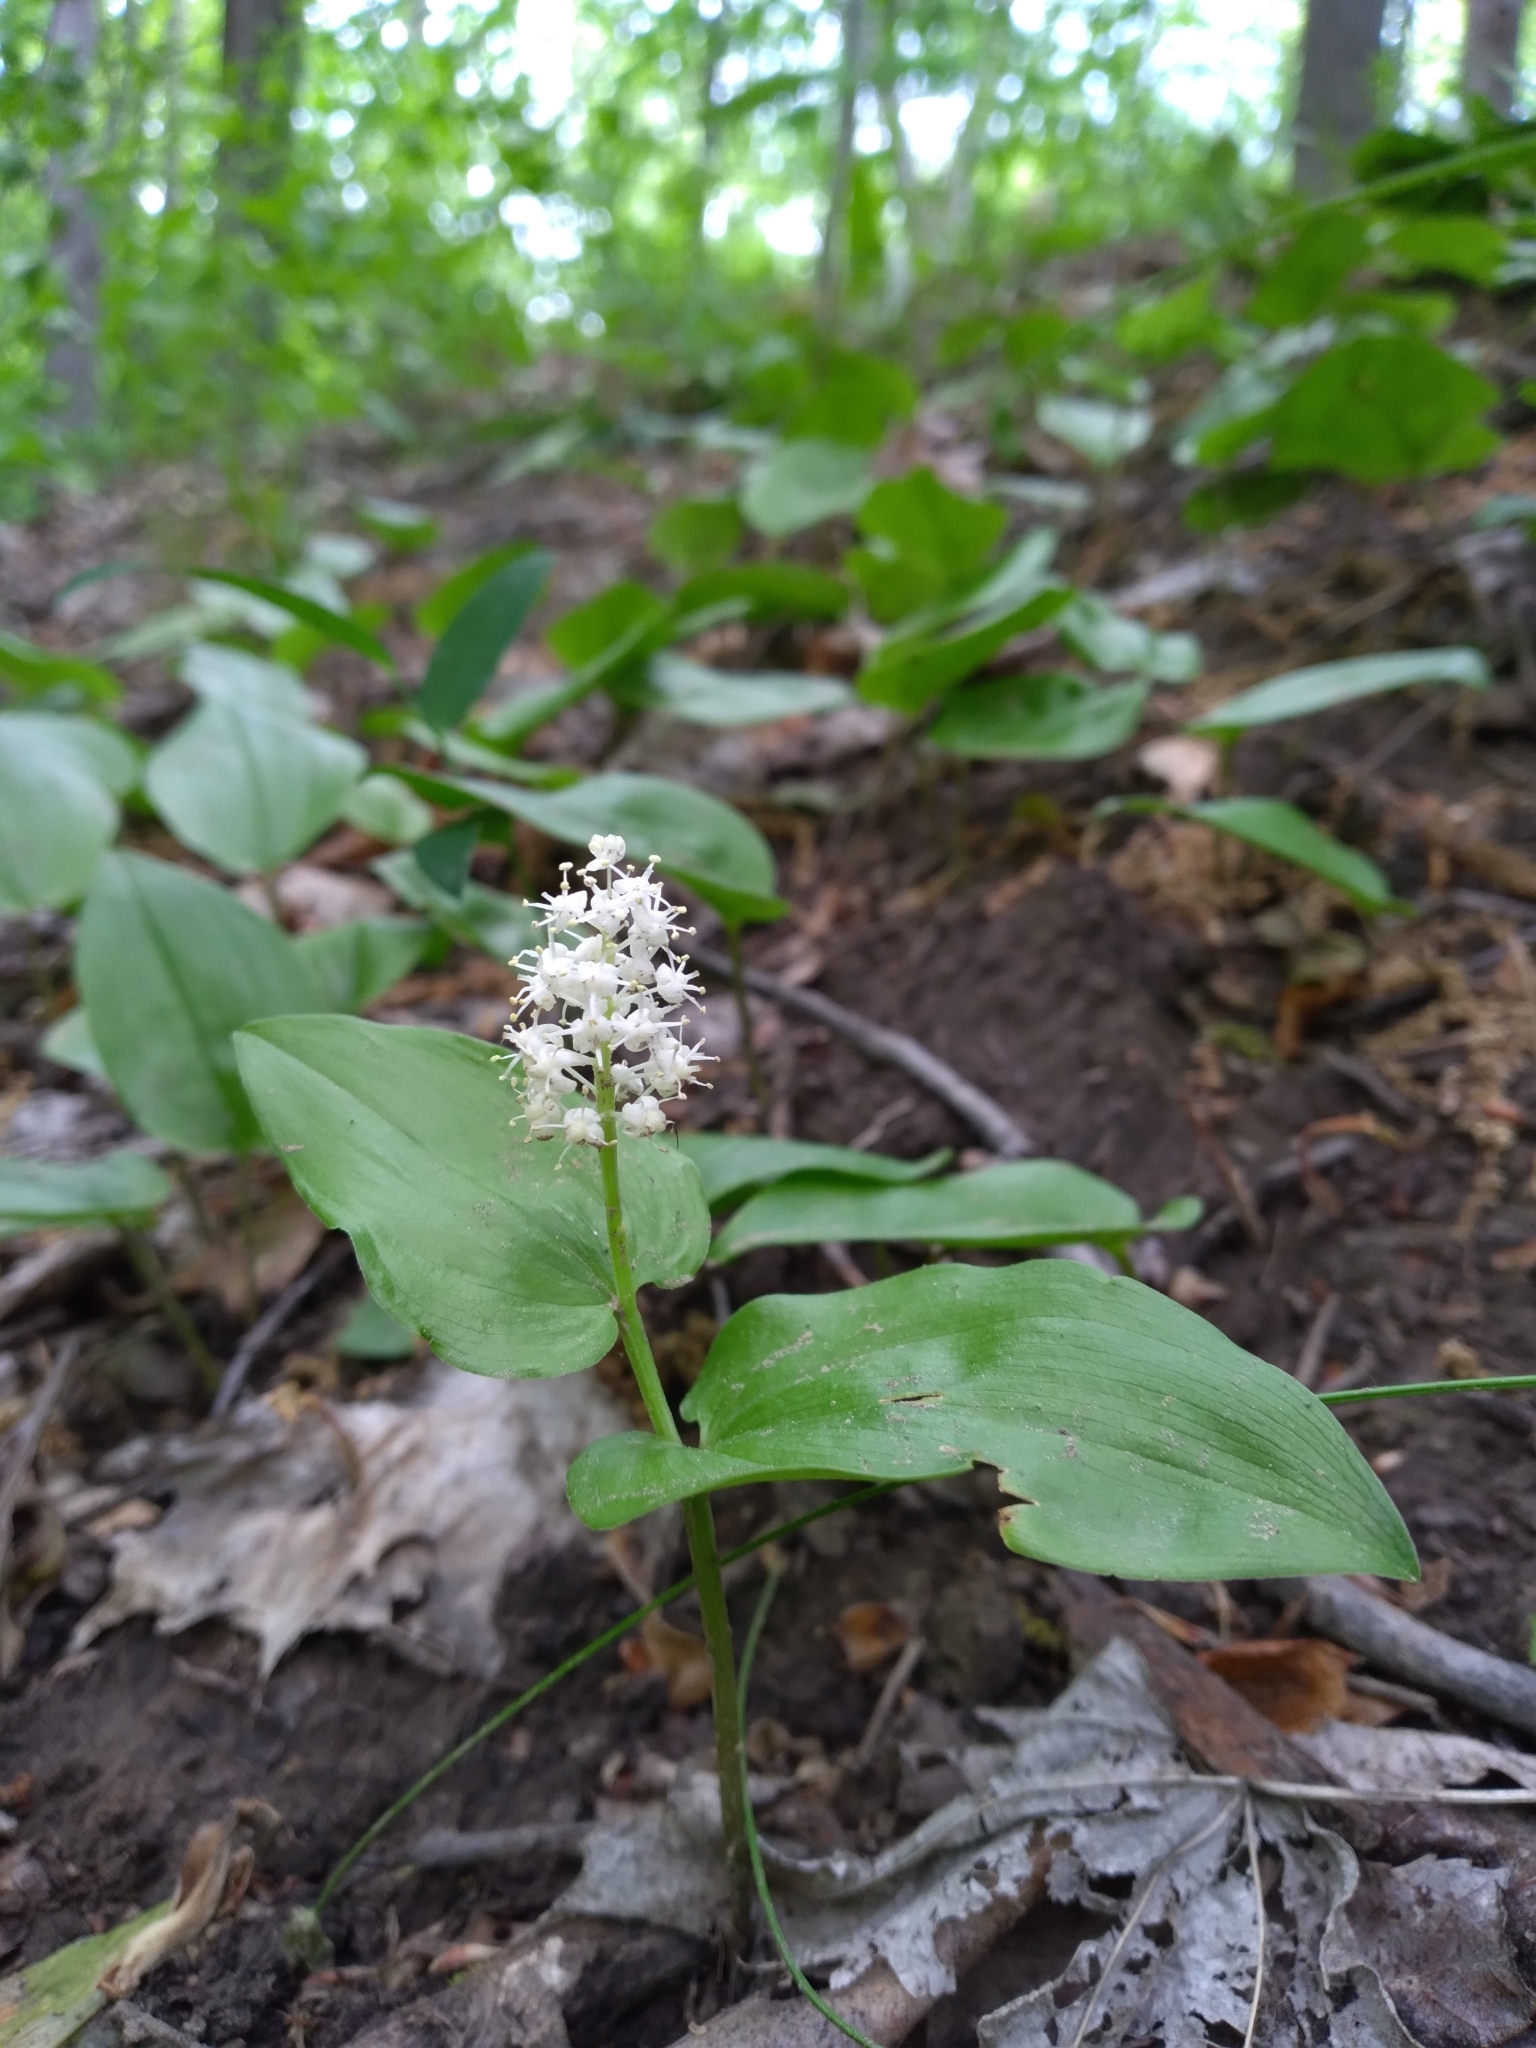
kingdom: Plantae
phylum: Tracheophyta
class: Liliopsida
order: Asparagales
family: Asparagaceae
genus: Maianthemum
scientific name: Maianthemum canadense
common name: False lily-of-the-valley
